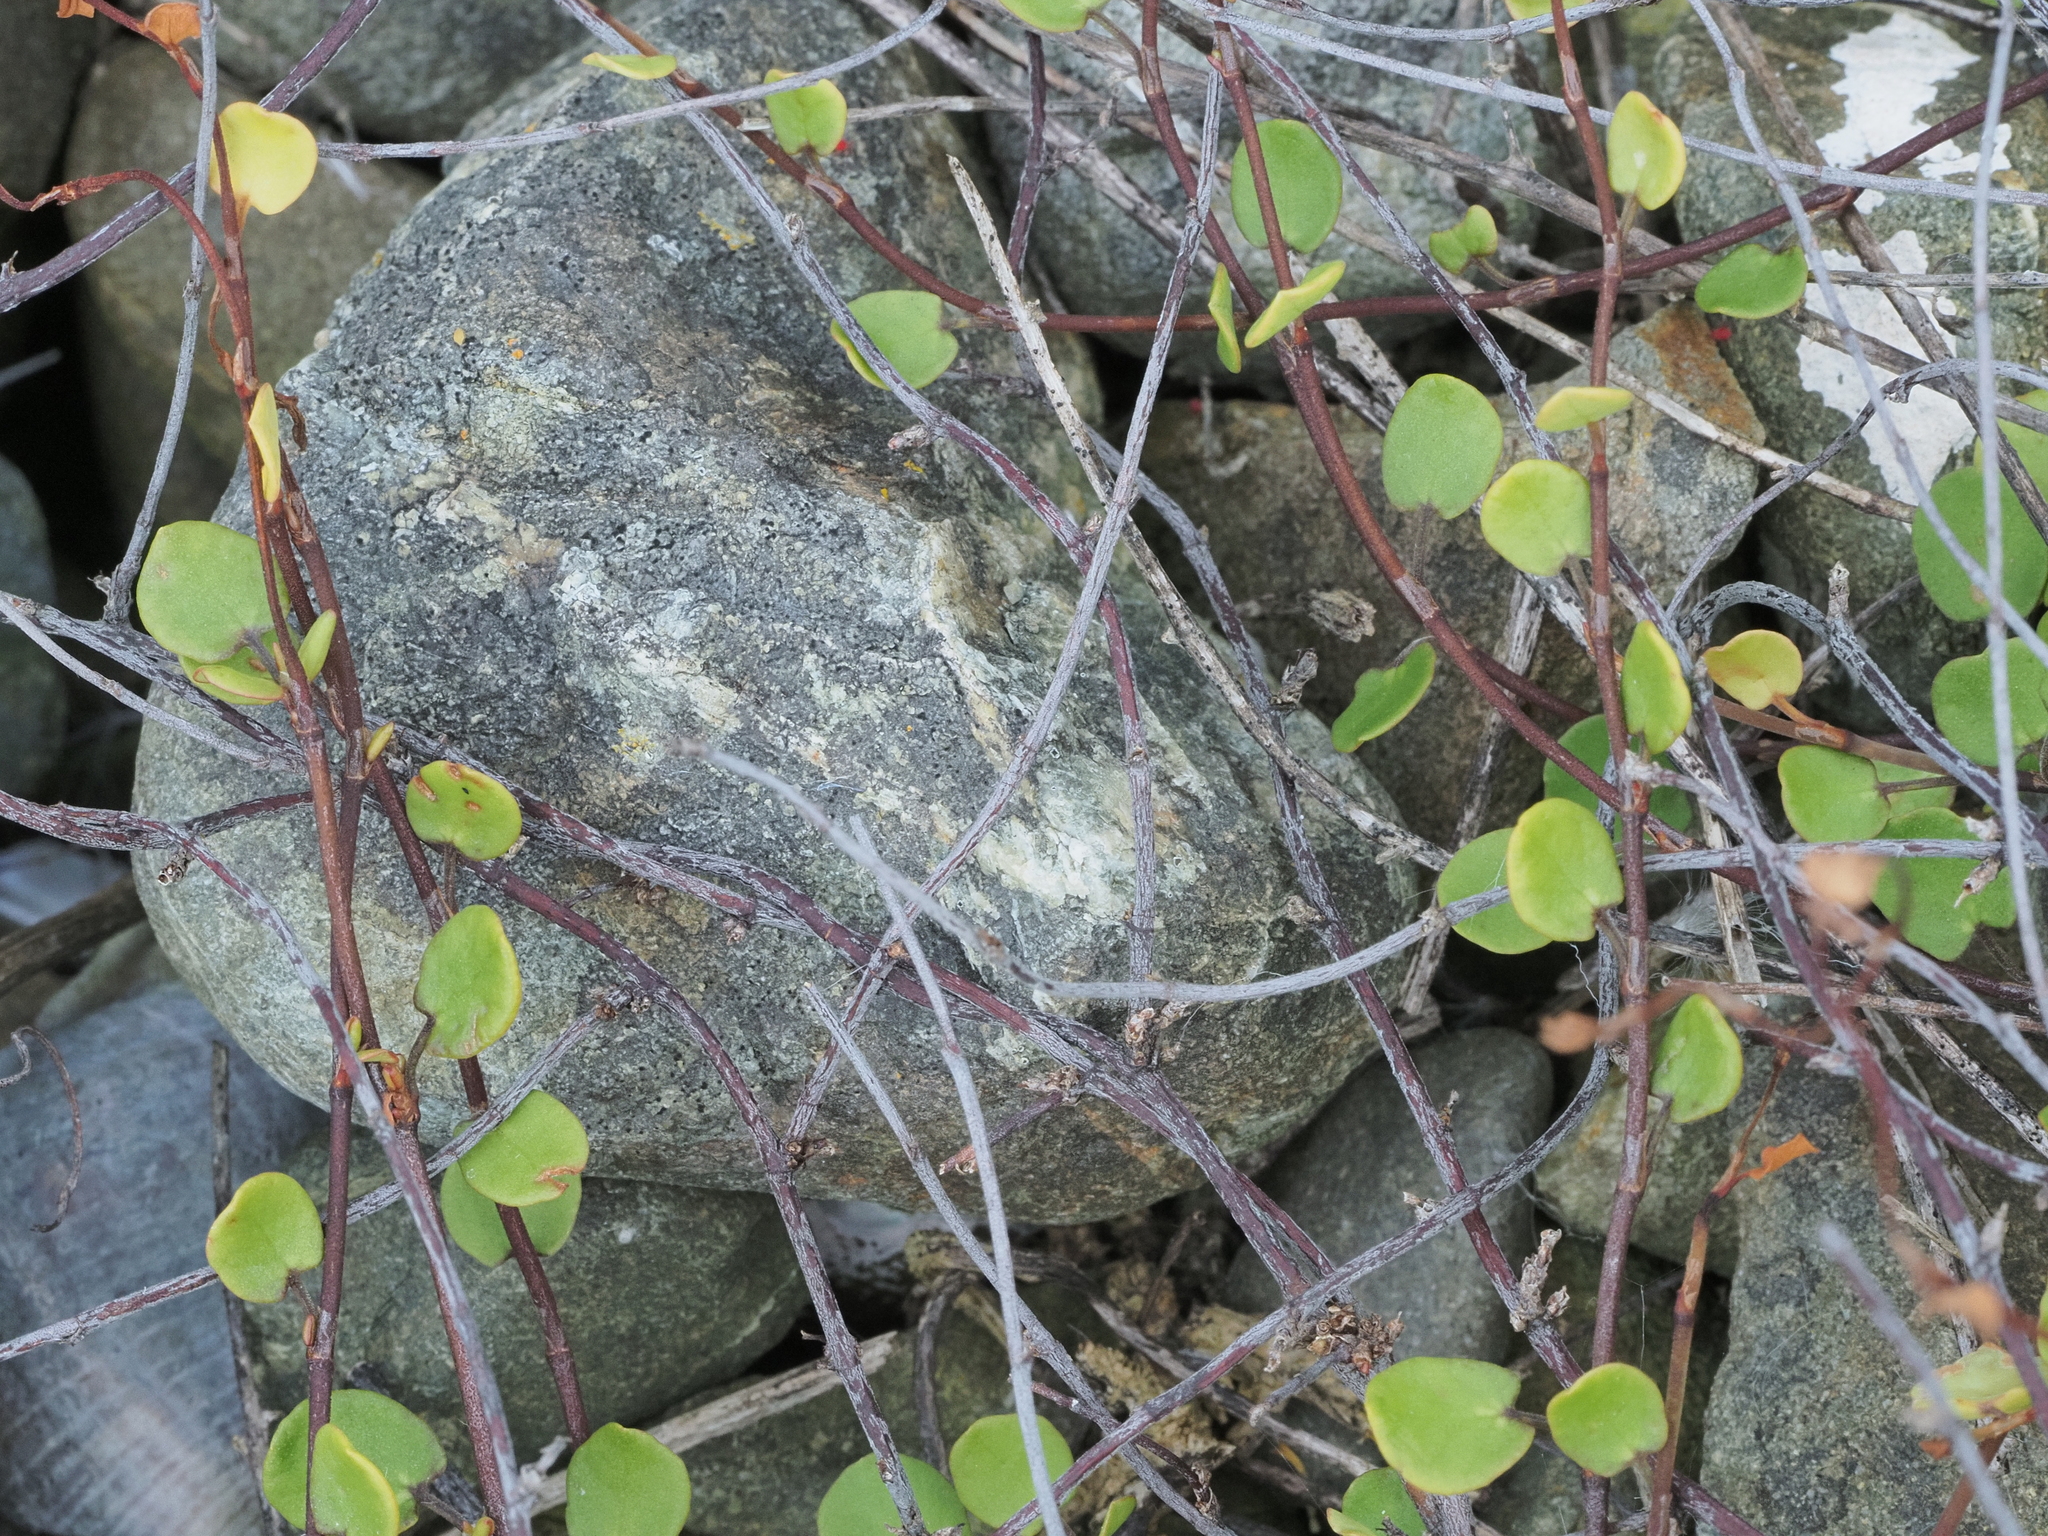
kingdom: Plantae
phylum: Tracheophyta
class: Magnoliopsida
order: Caryophyllales
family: Polygonaceae
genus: Muehlenbeckia
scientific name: Muehlenbeckia complexa
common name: Wireplant
